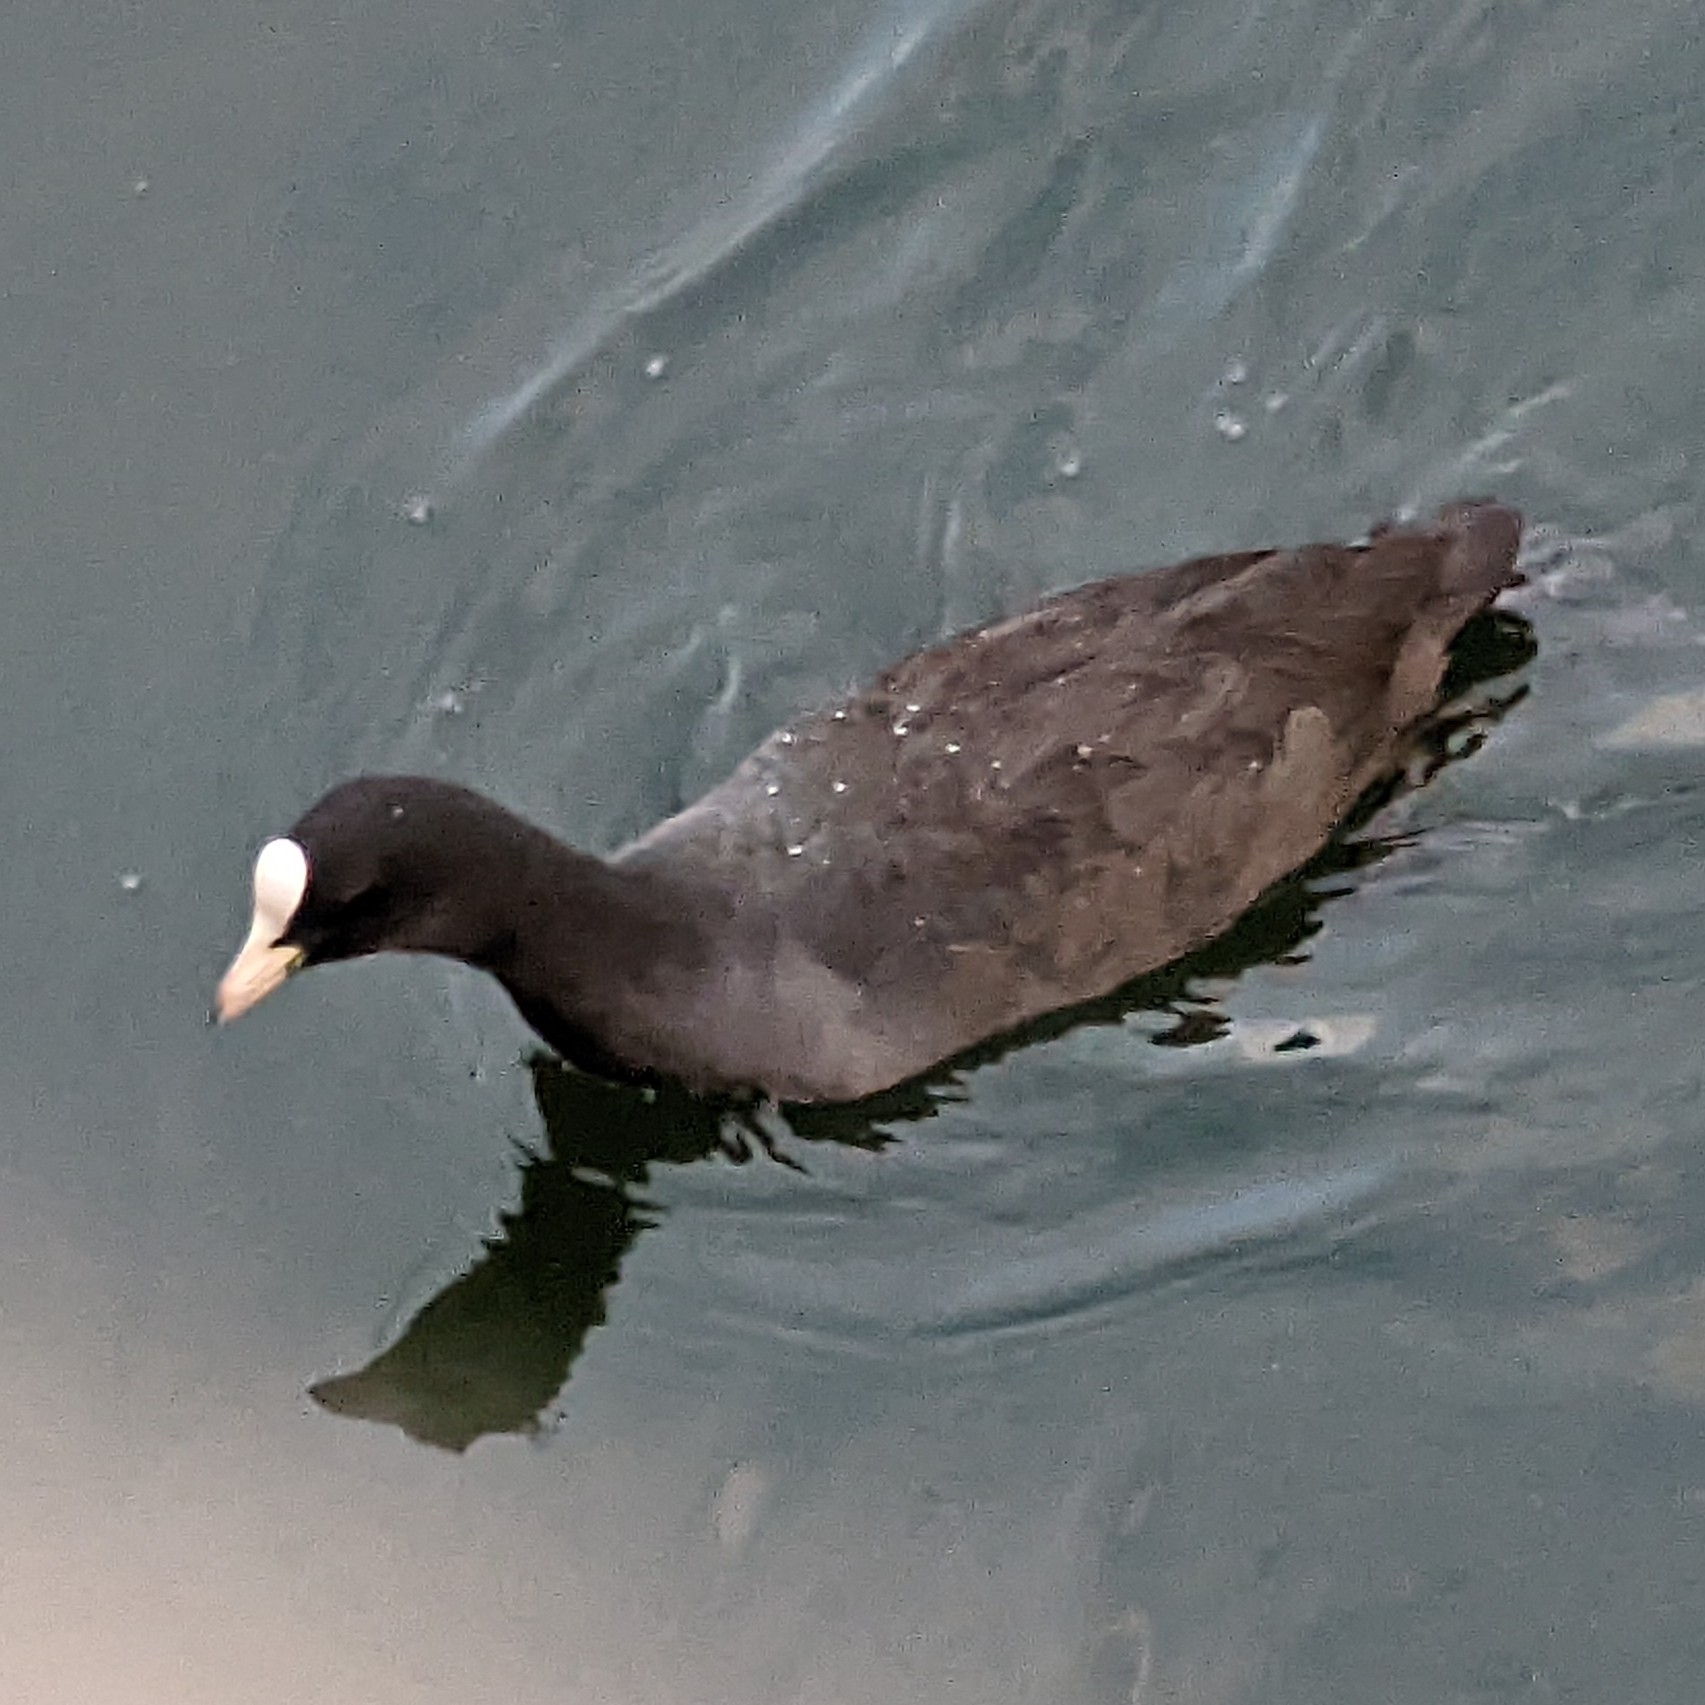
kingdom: Animalia
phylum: Chordata
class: Aves
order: Gruiformes
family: Rallidae
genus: Fulica
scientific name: Fulica atra
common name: Eurasian coot
